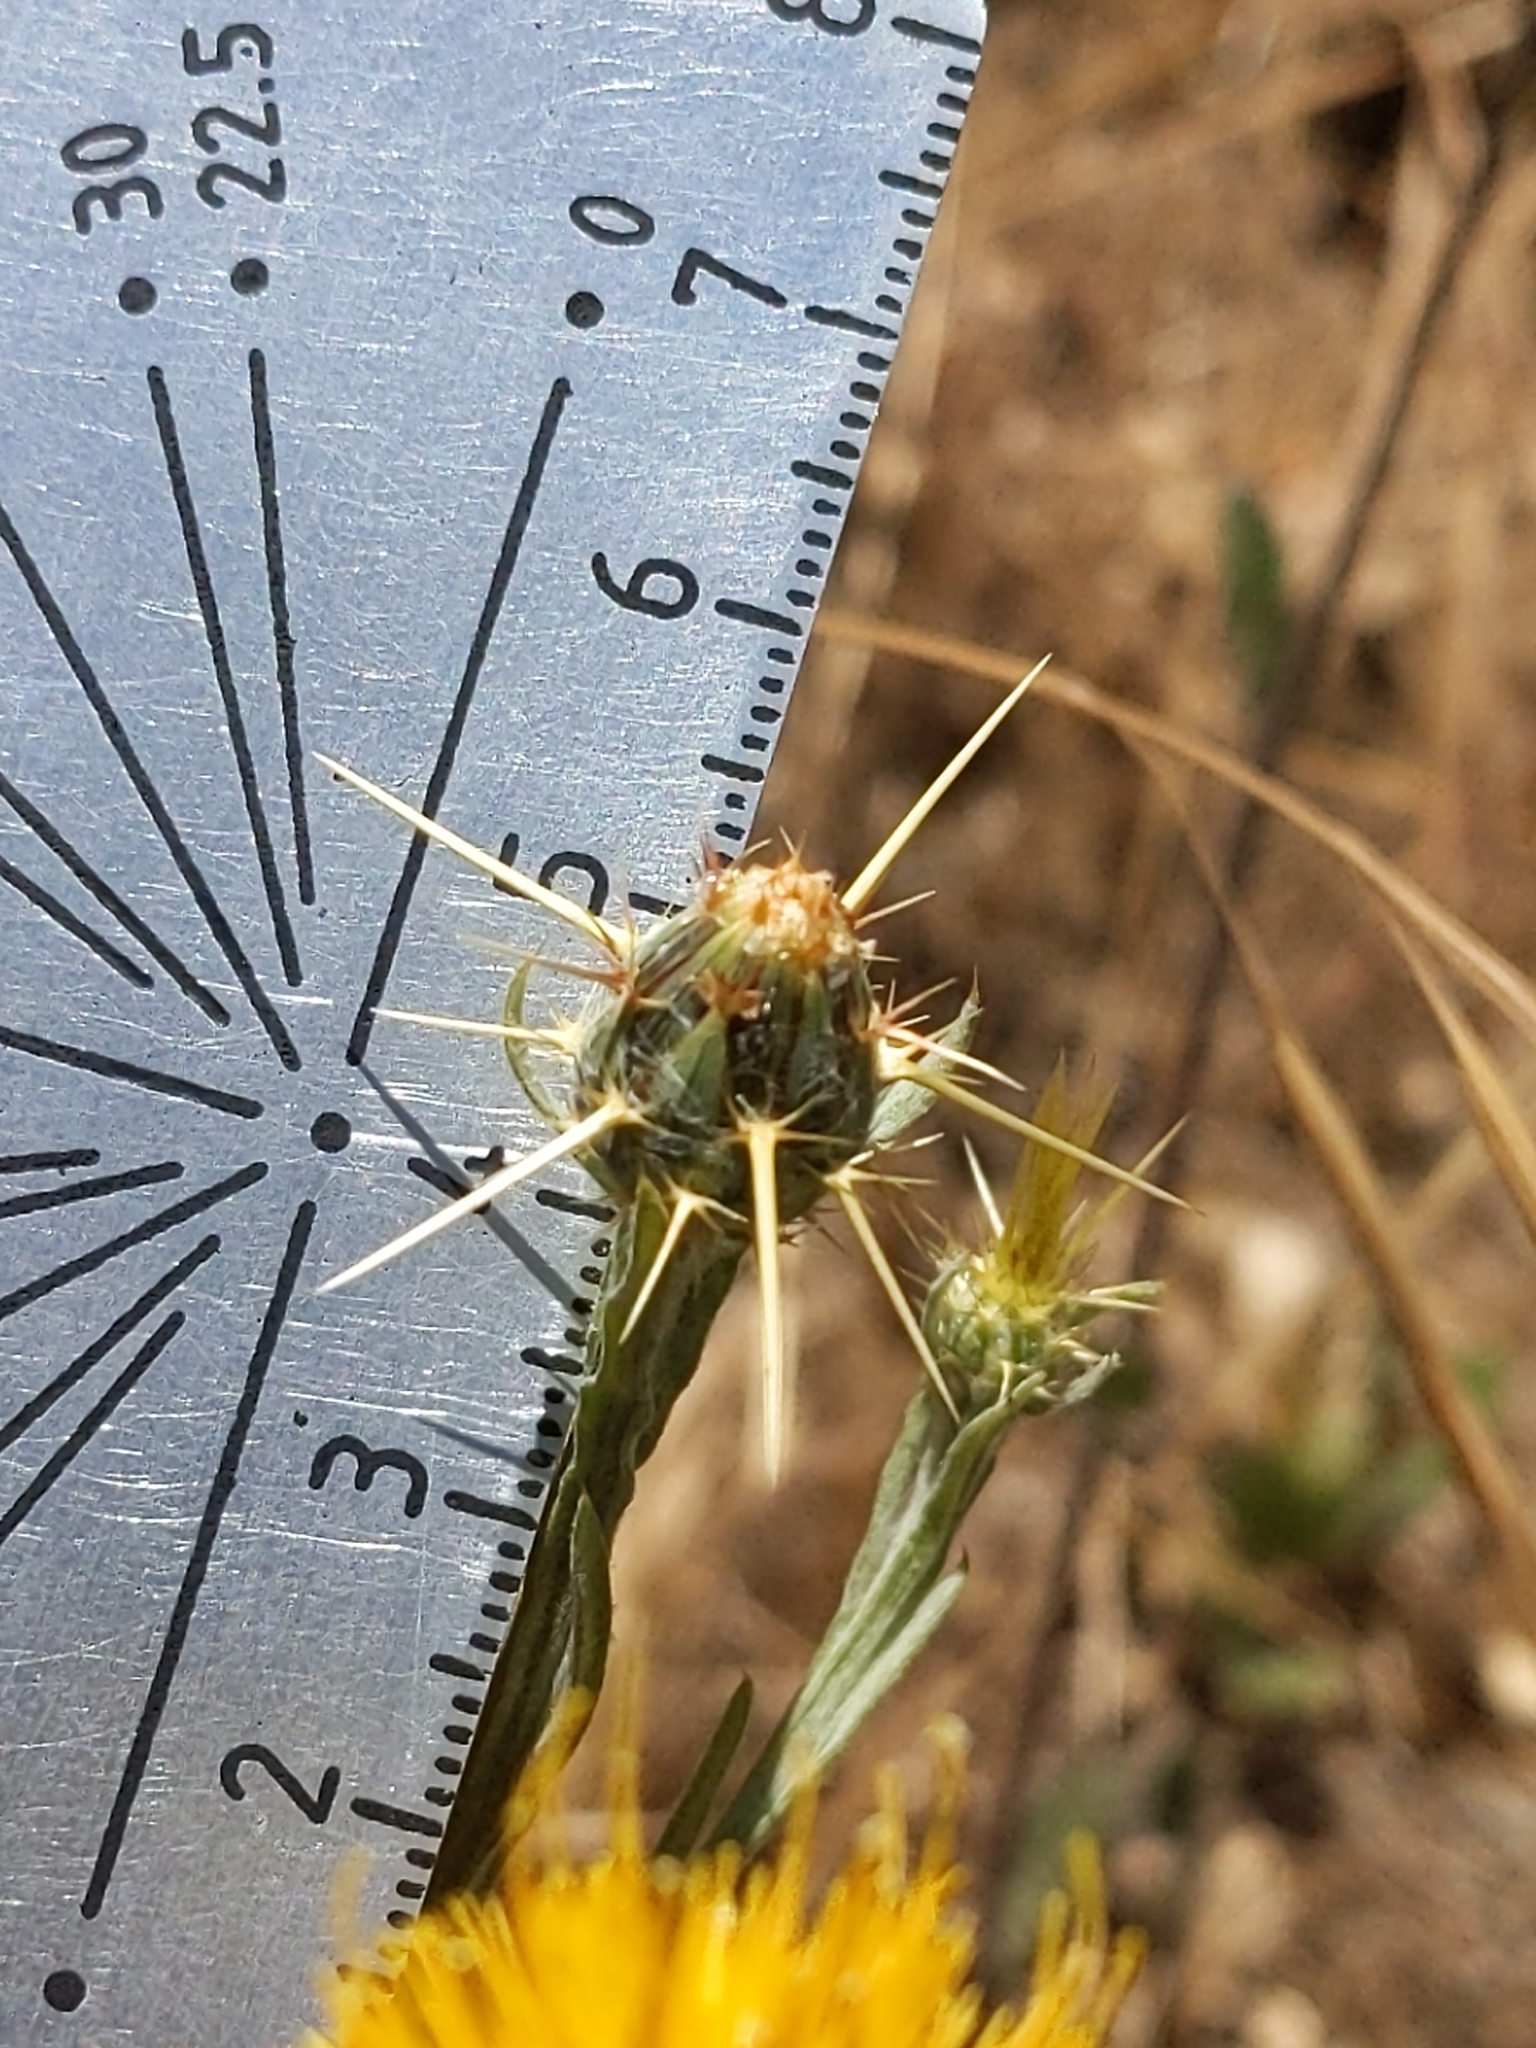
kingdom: Plantae
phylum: Tracheophyta
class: Magnoliopsida
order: Asterales
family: Asteraceae
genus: Centaurea
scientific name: Centaurea solstitialis
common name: Yellow star-thistle
